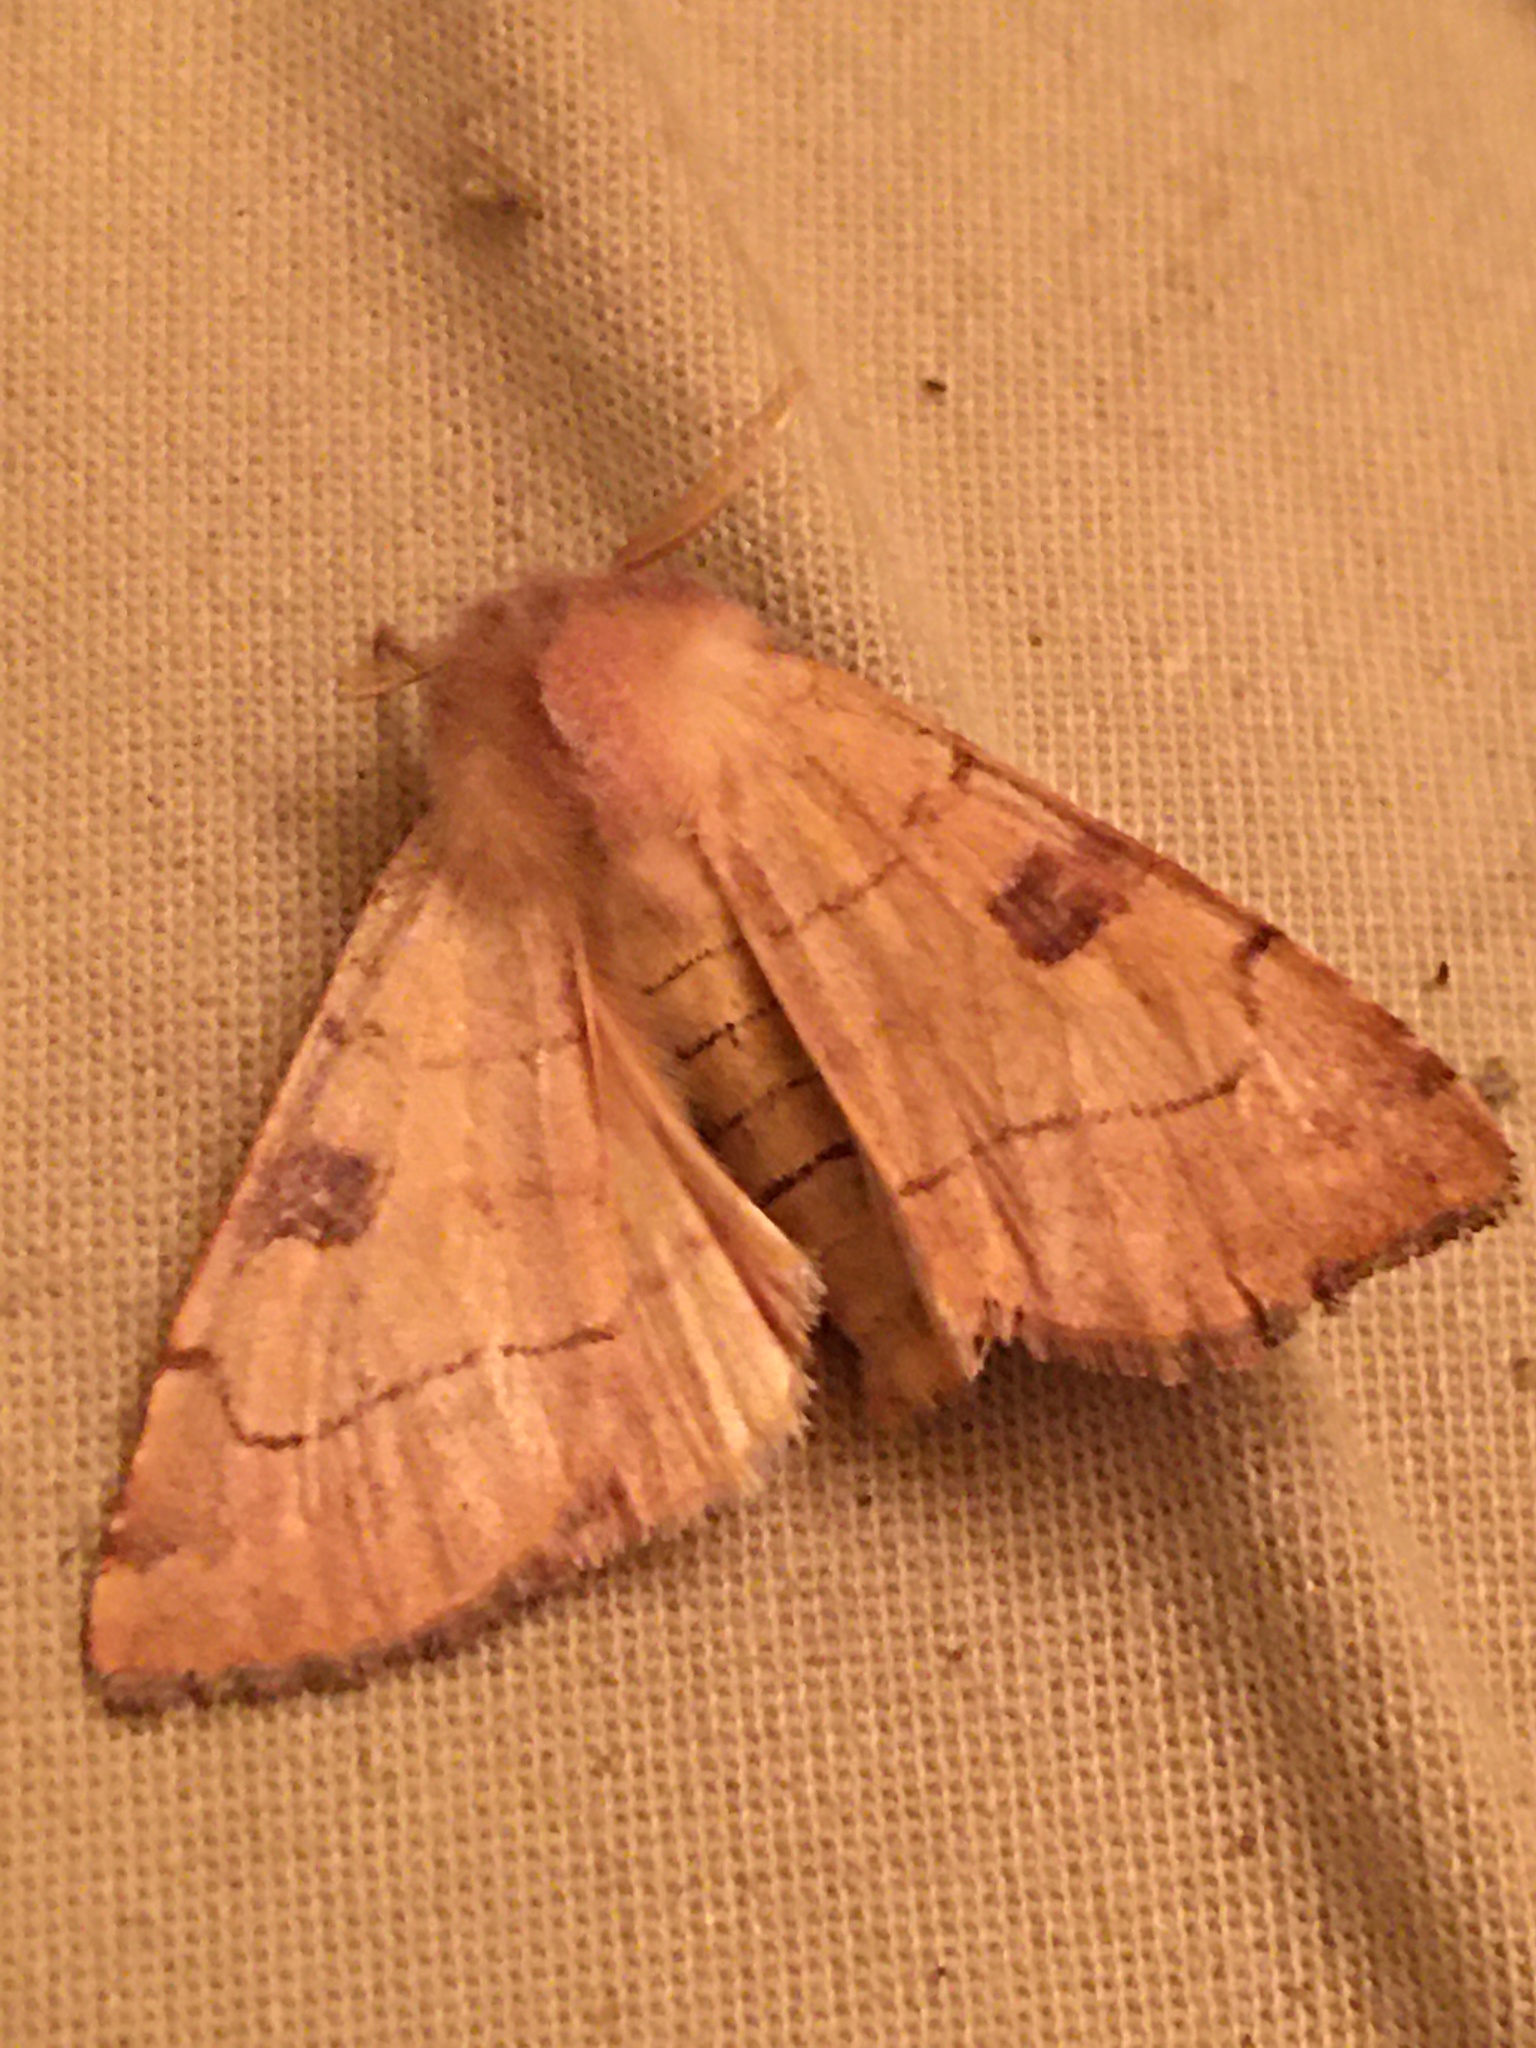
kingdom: Animalia
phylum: Arthropoda
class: Insecta
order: Lepidoptera
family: Noctuidae
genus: Choephora
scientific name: Choephora fungorum
